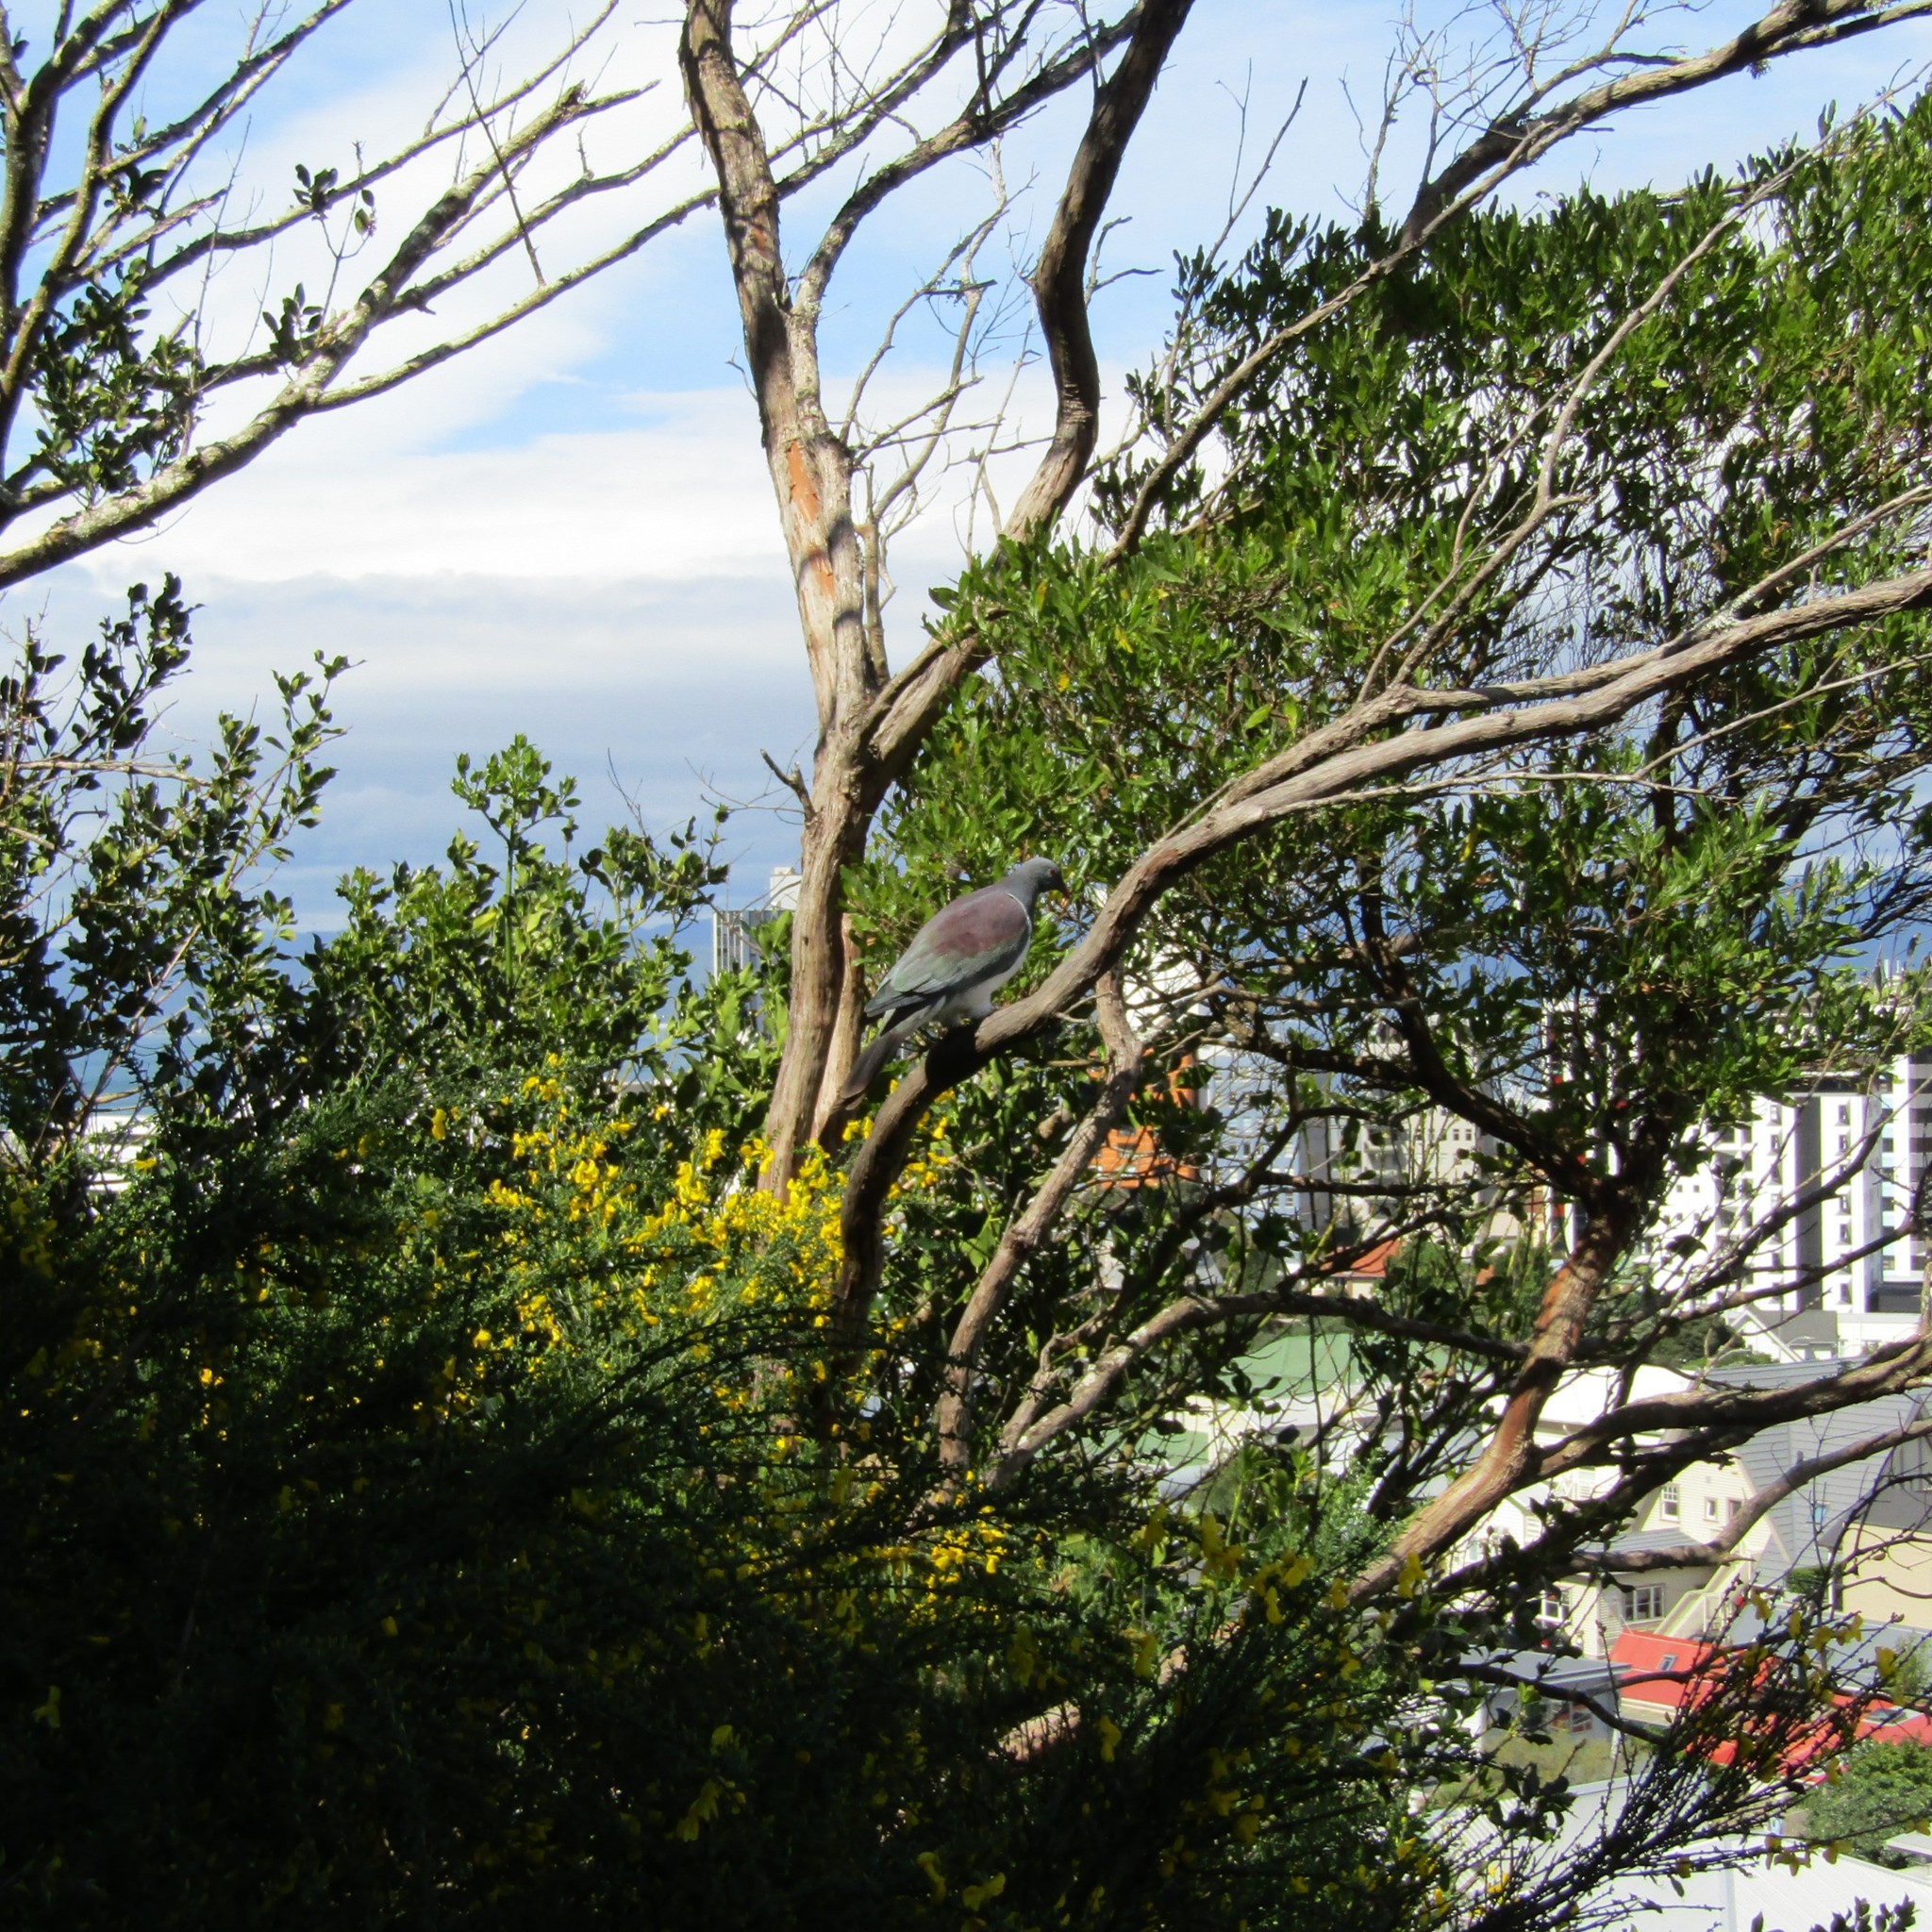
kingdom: Animalia
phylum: Chordata
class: Aves
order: Columbiformes
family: Columbidae
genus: Hemiphaga
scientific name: Hemiphaga novaeseelandiae
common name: New zealand pigeon
